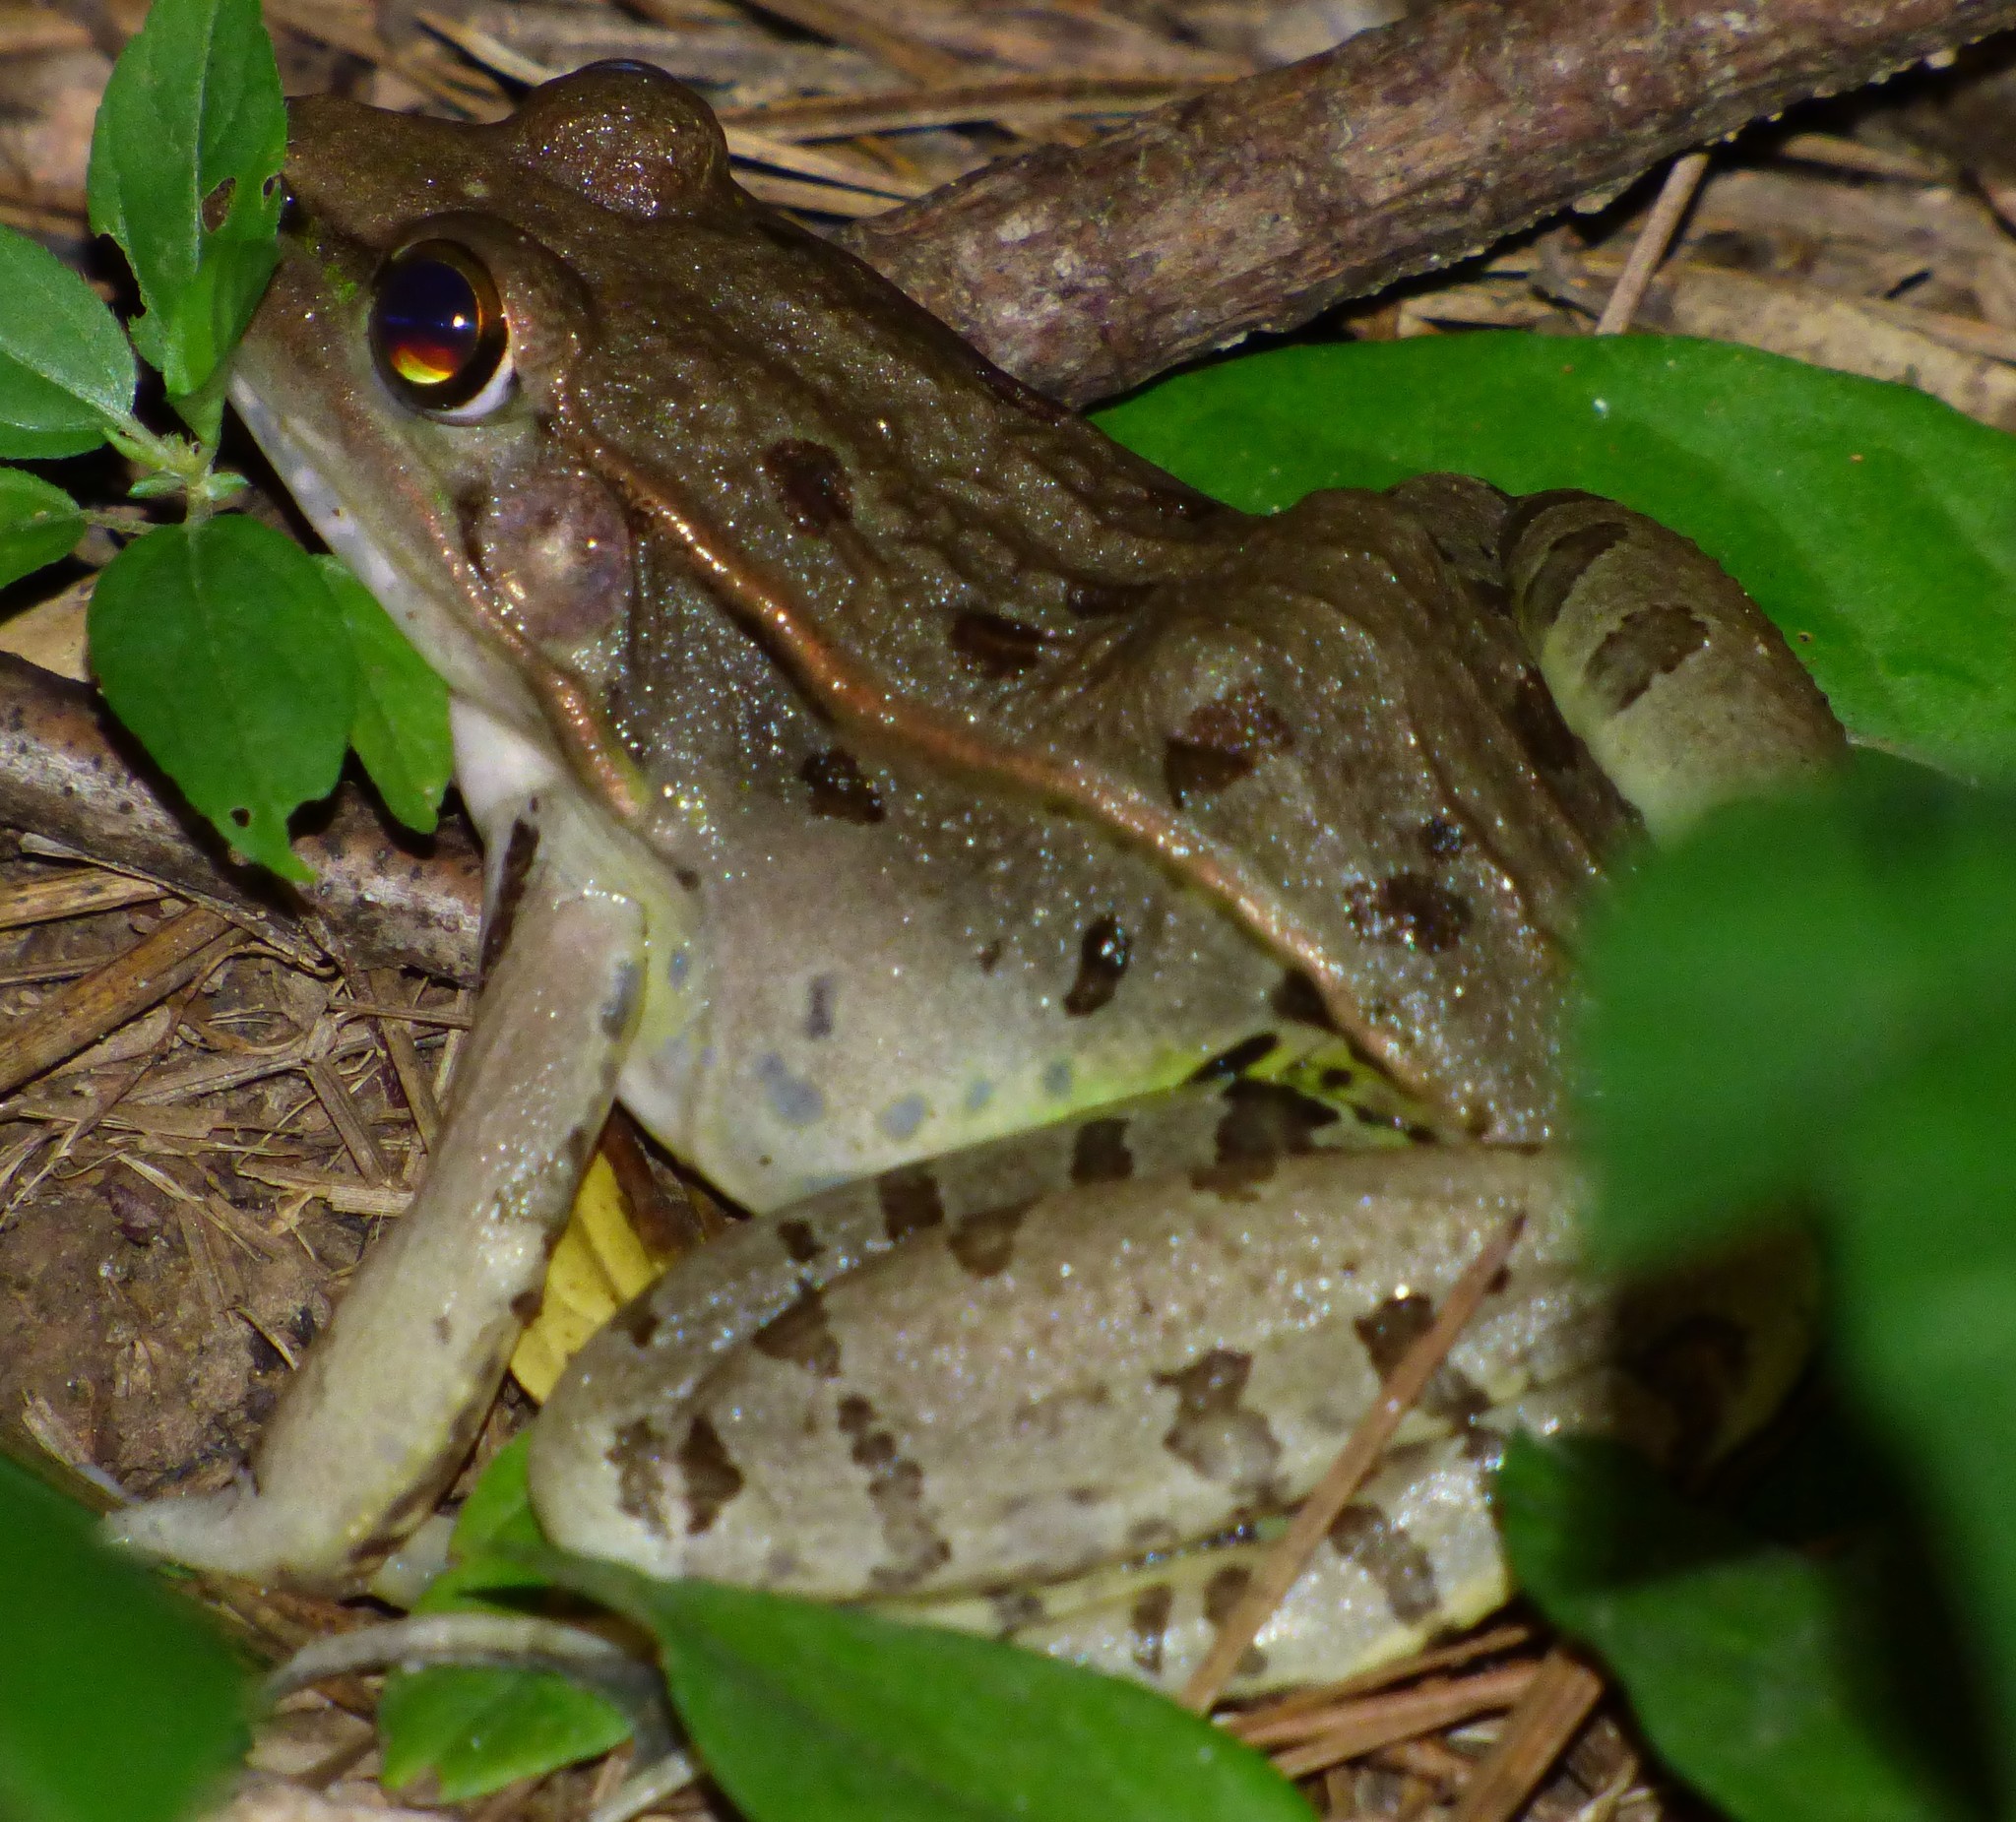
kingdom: Animalia
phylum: Chordata
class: Amphibia
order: Anura
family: Ranidae
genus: Lithobates
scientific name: Lithobates sphenocephalus
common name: Southern leopard frog
